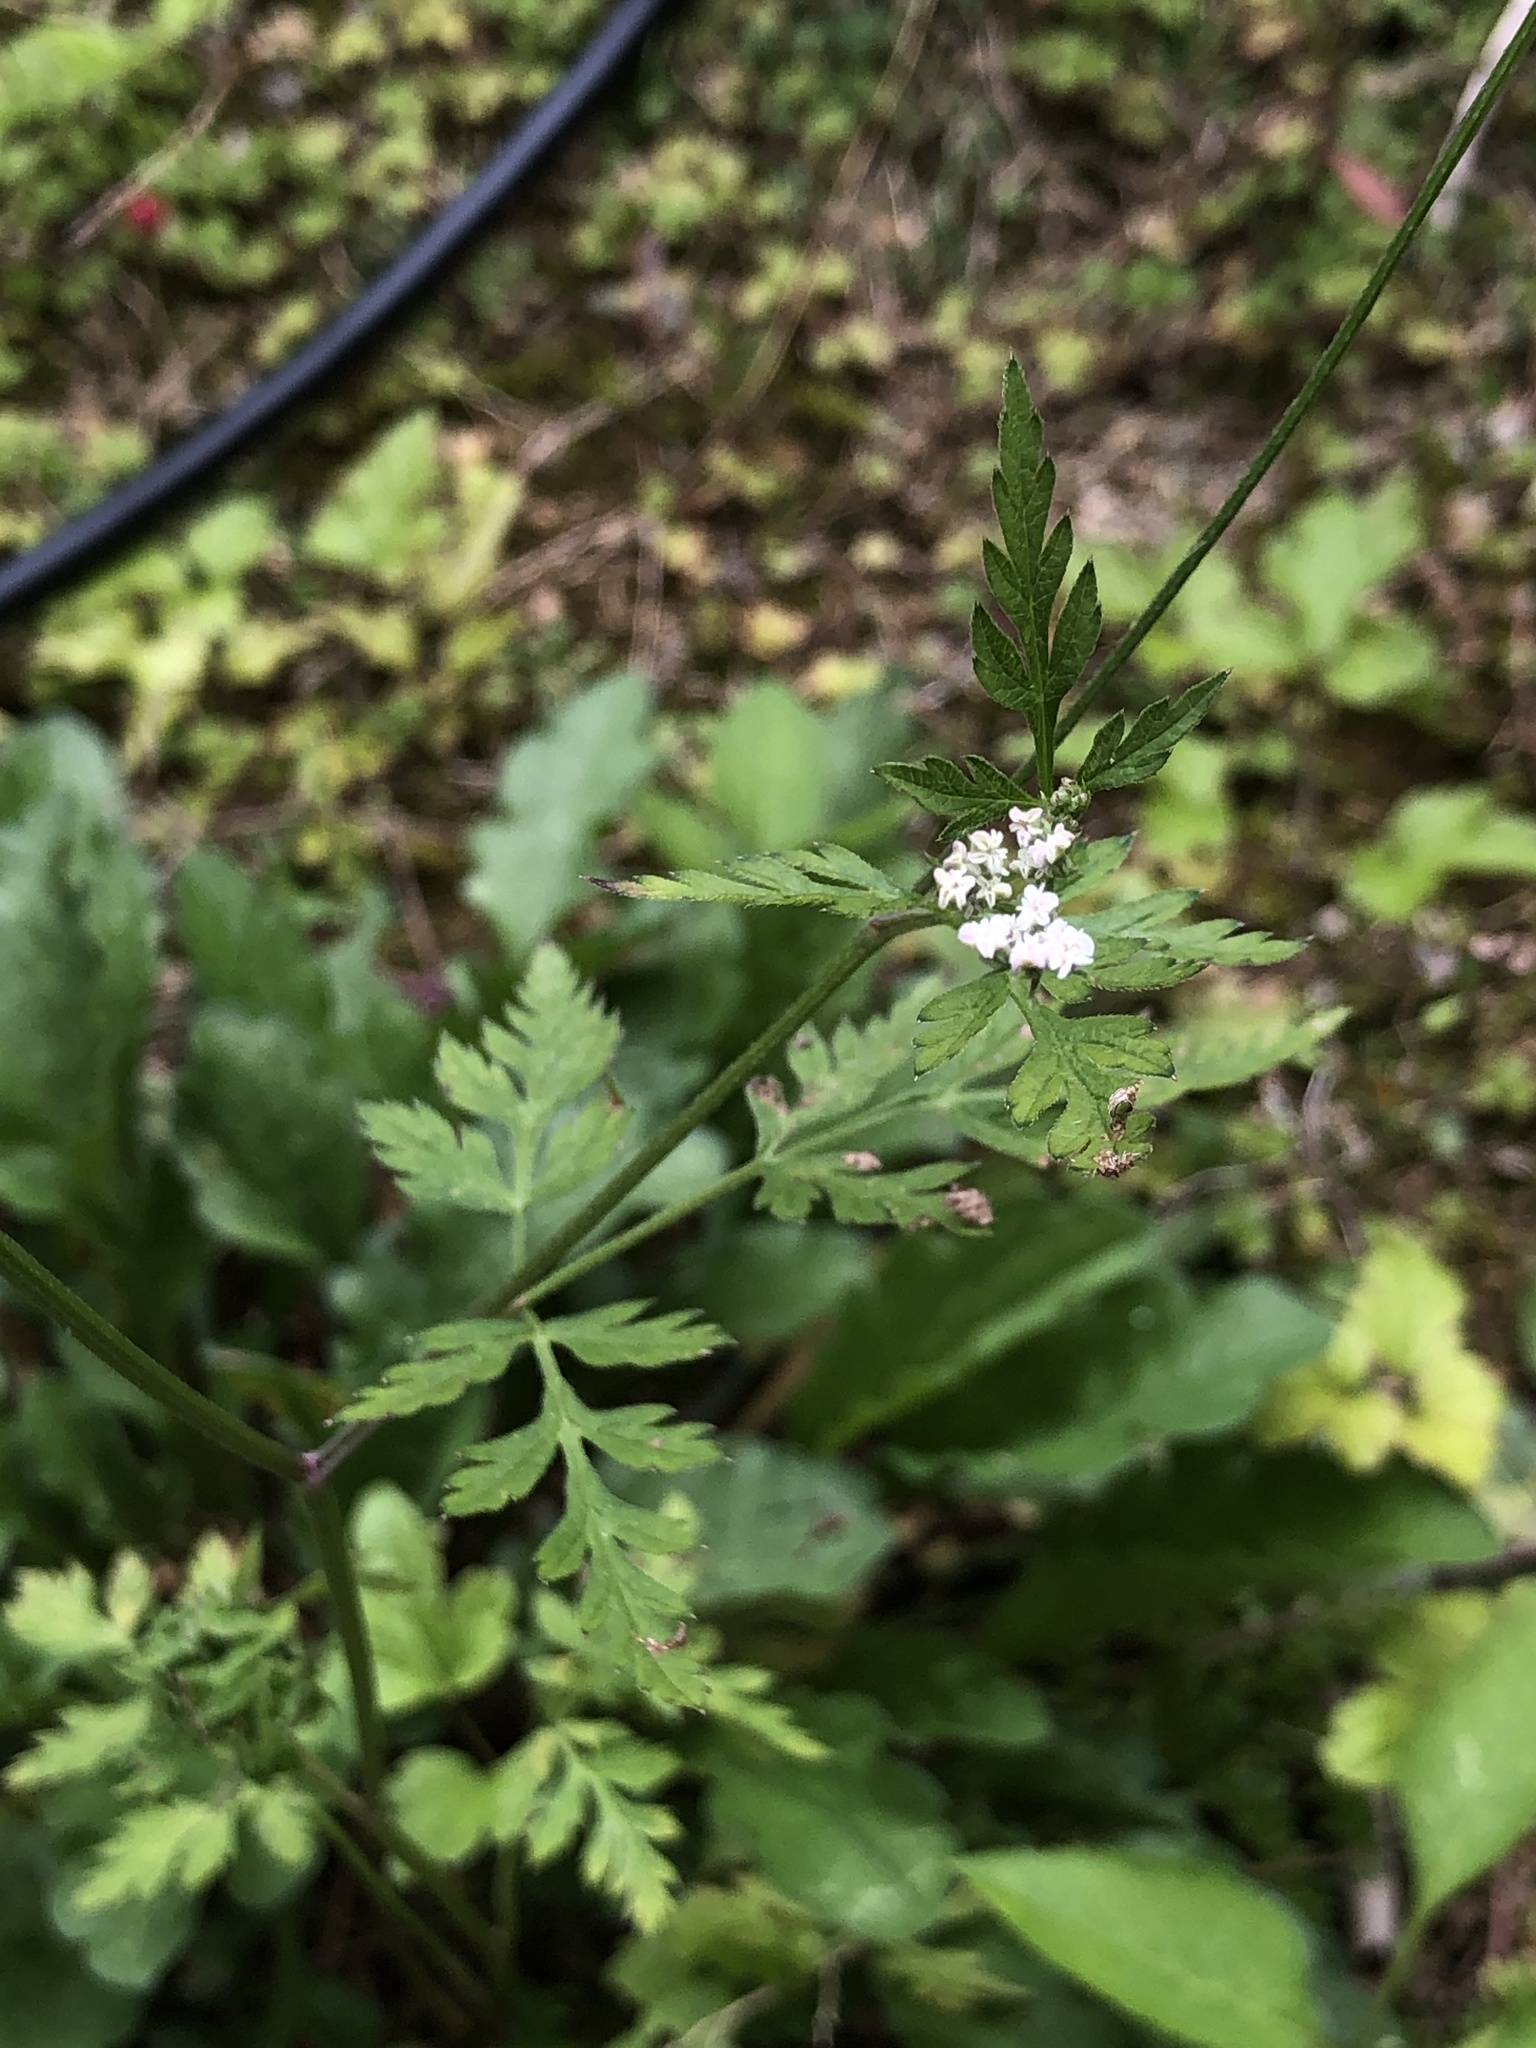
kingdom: Plantae
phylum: Tracheophyta
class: Magnoliopsida
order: Apiales
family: Apiaceae
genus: Torilis
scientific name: Torilis japonica
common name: Upright hedge-parsley
